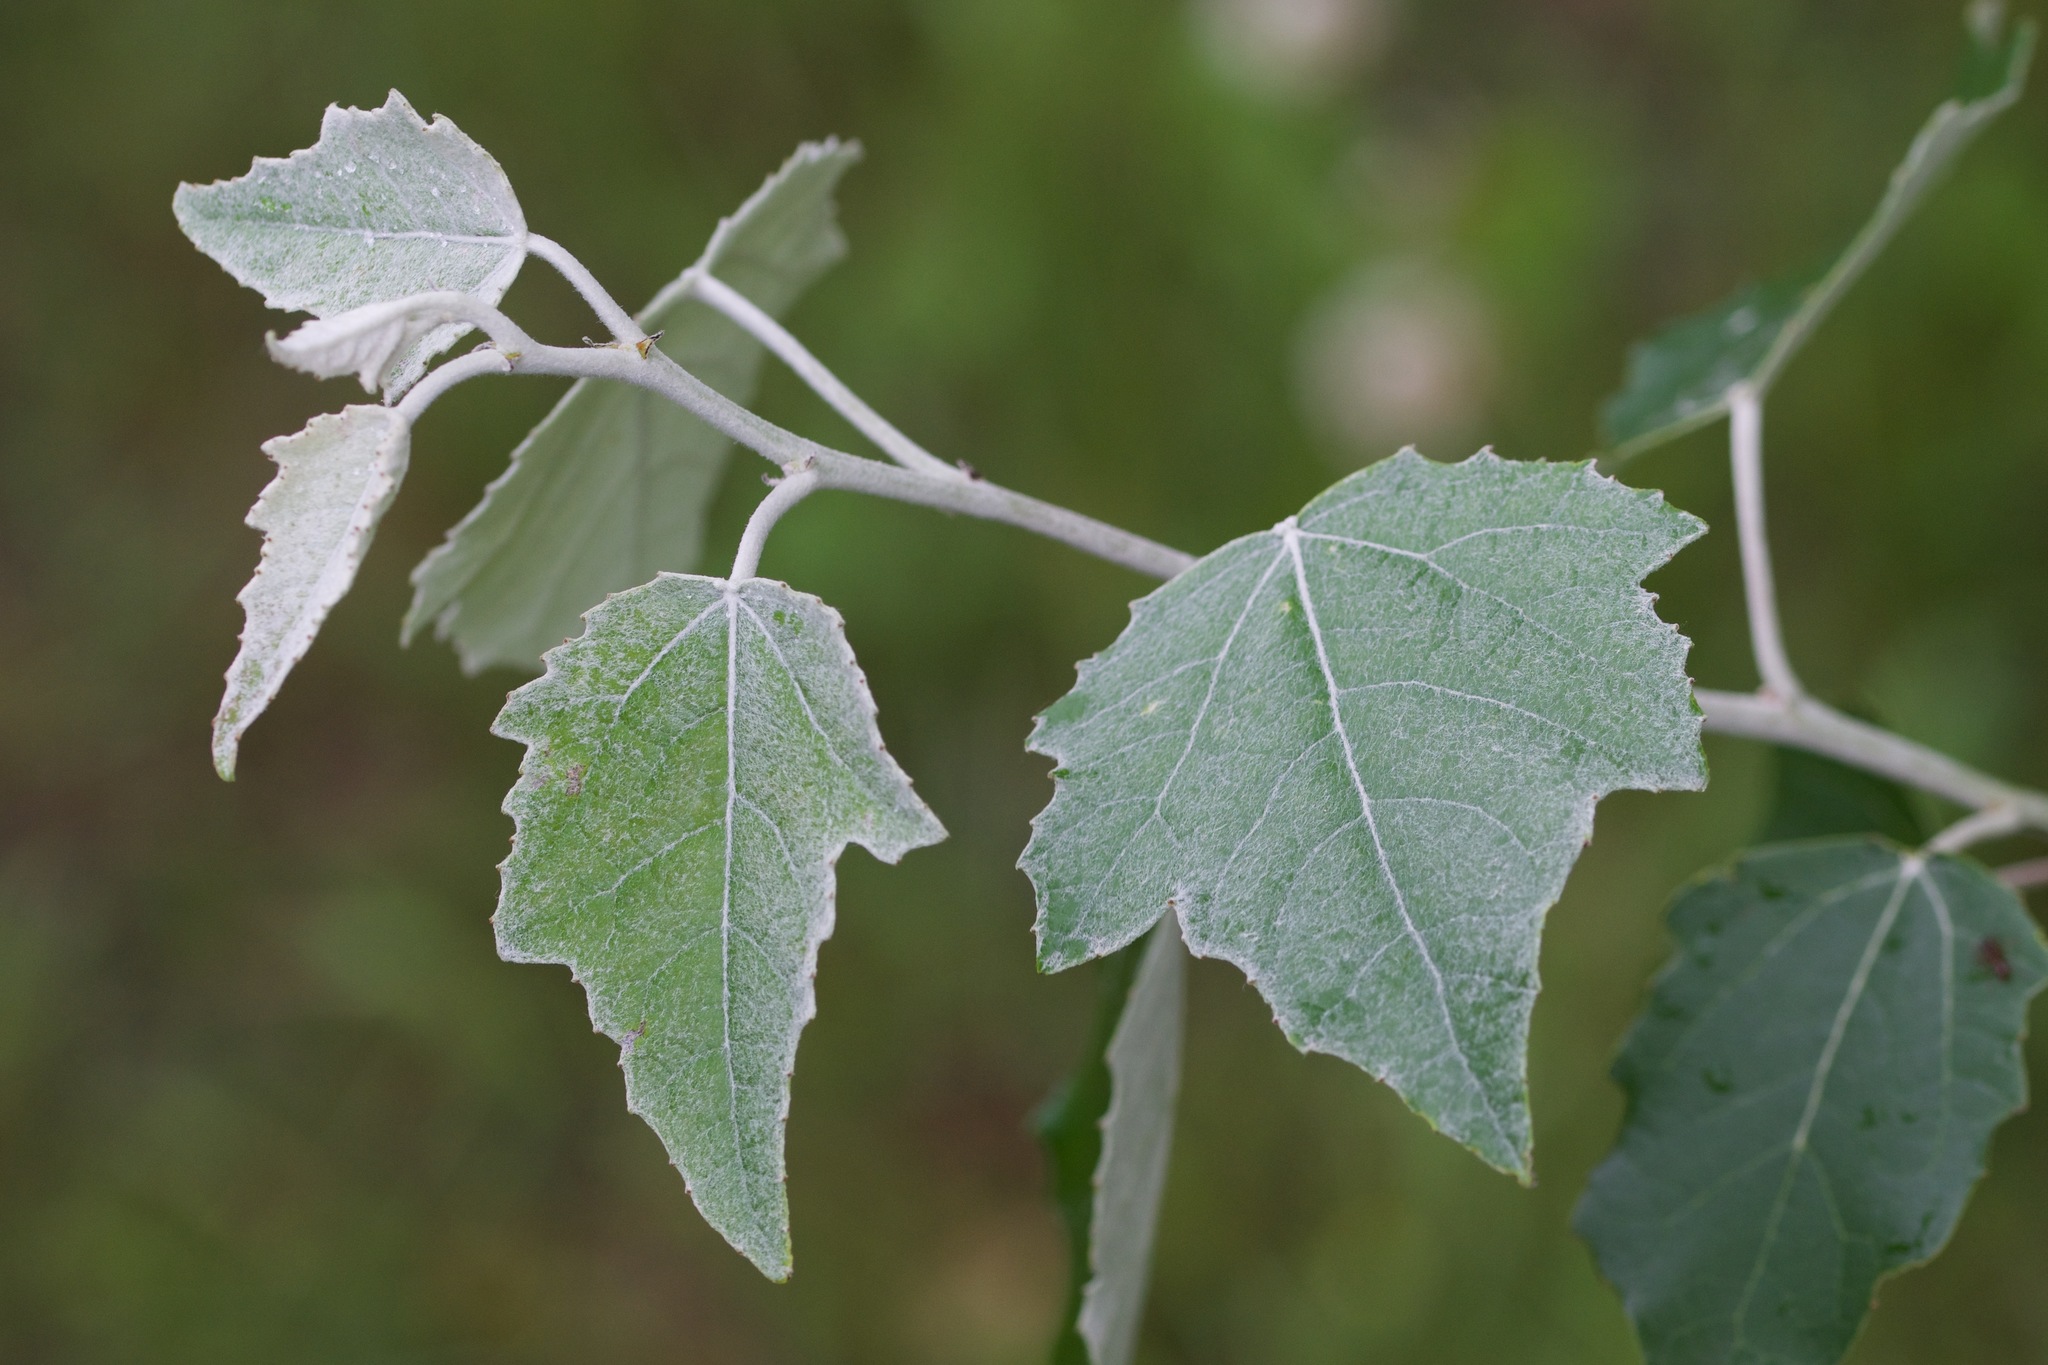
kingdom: Plantae
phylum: Tracheophyta
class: Magnoliopsida
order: Malpighiales
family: Salicaceae
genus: Populus
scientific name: Populus alba
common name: White poplar
